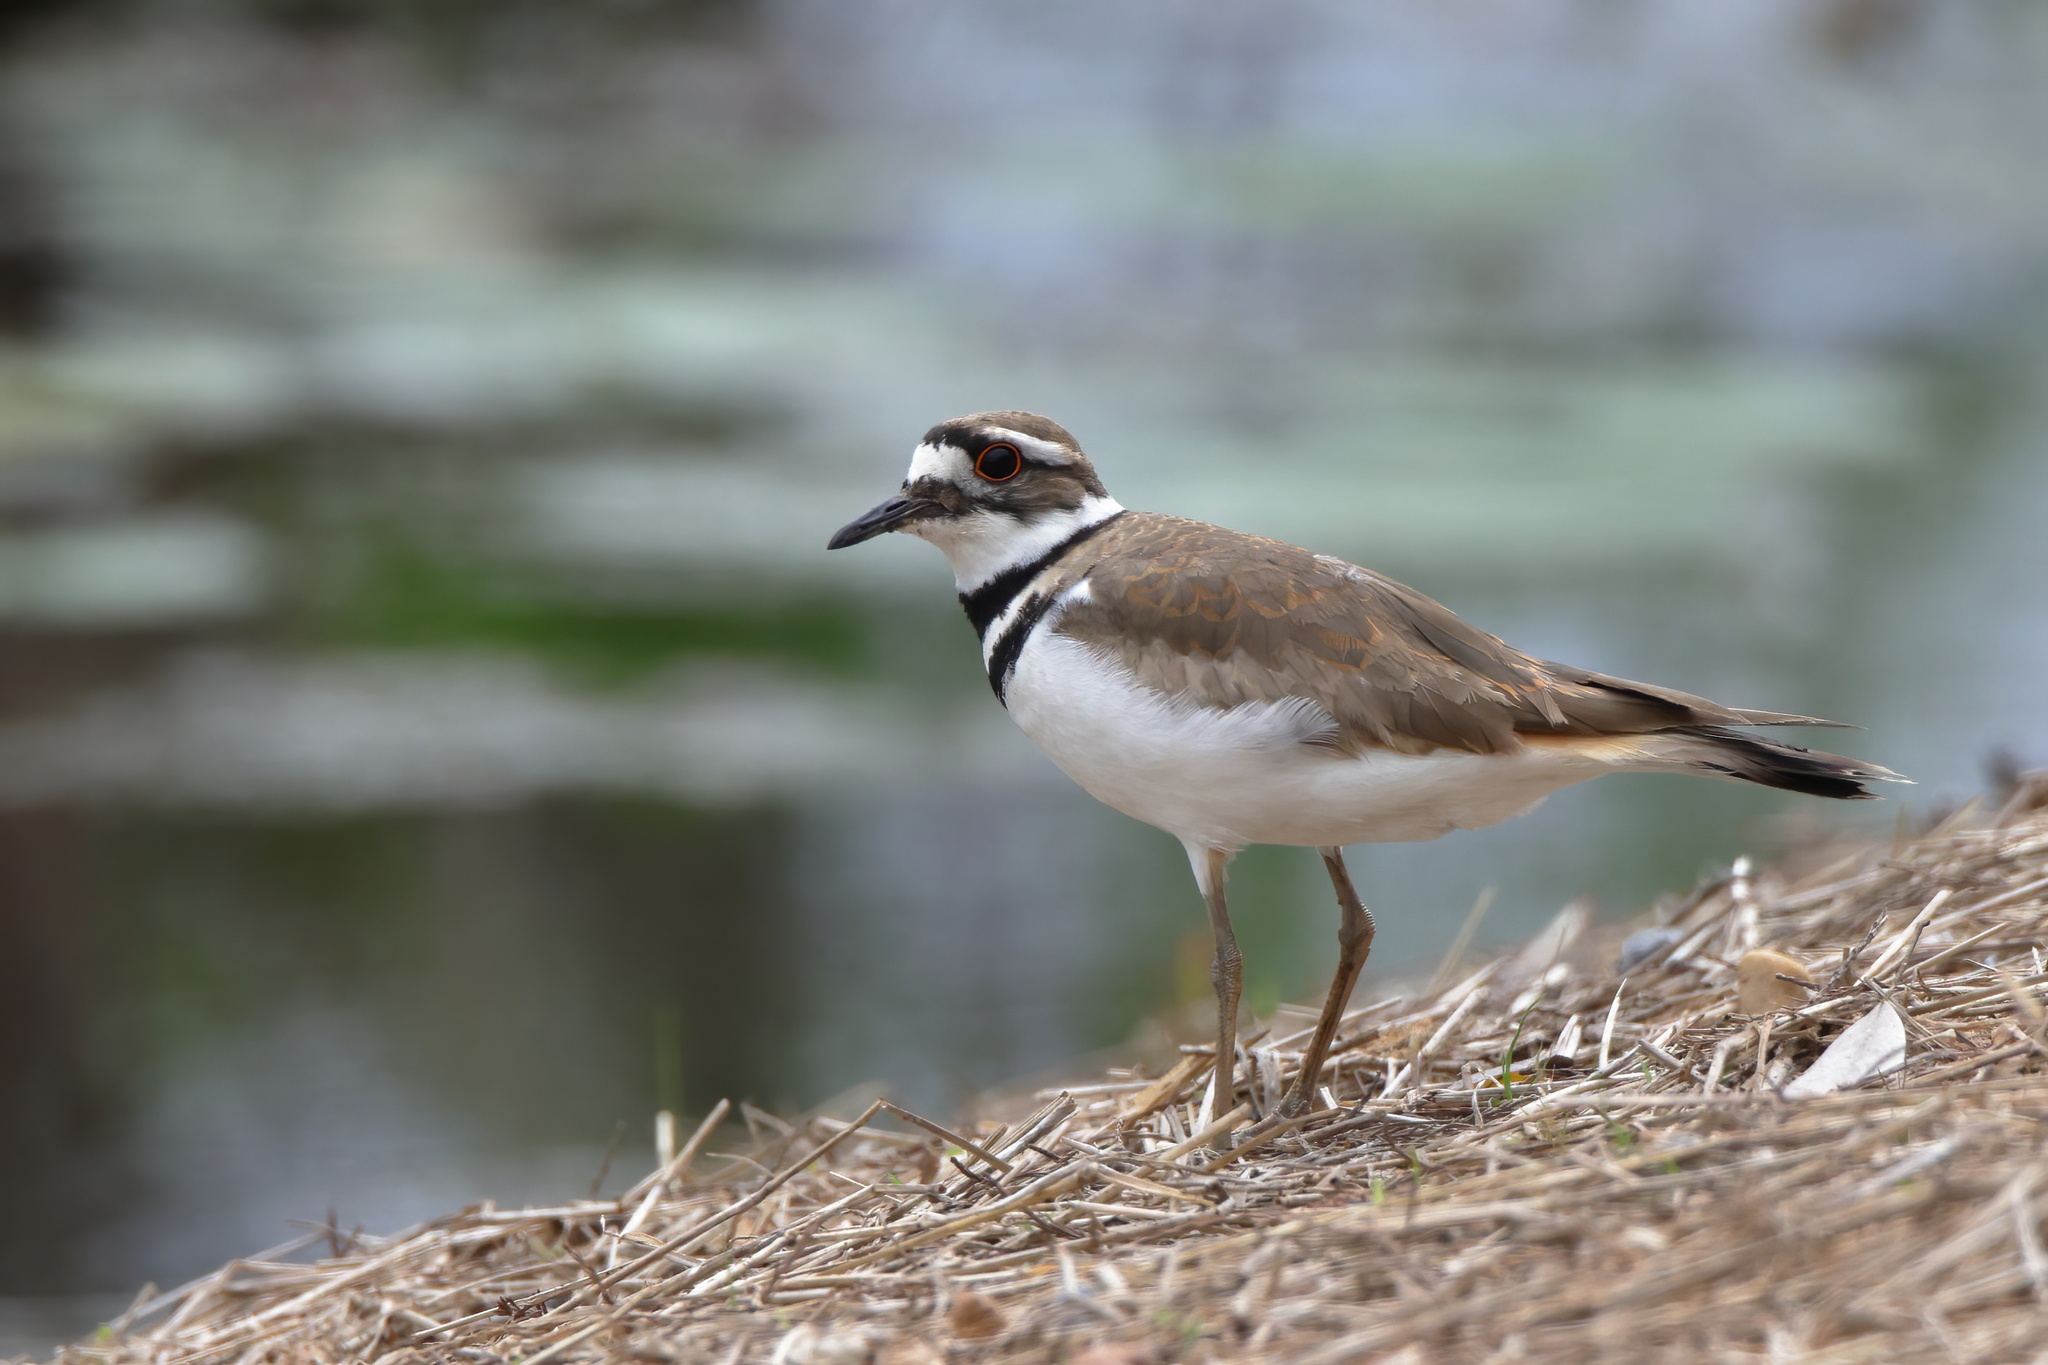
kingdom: Animalia
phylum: Chordata
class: Aves
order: Charadriiformes
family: Charadriidae
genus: Charadrius
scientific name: Charadrius vociferus
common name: Killdeer
